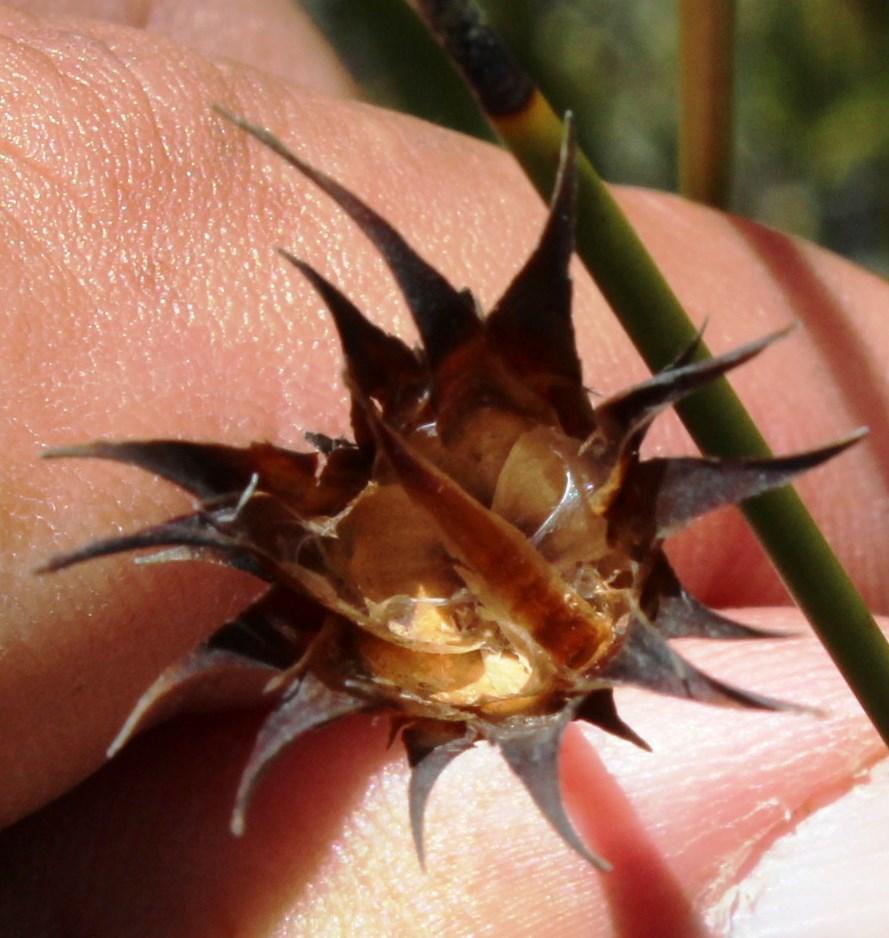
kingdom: Plantae
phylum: Tracheophyta
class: Liliopsida
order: Poales
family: Restionaceae
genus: Hypodiscus
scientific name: Hypodiscus aristatus
